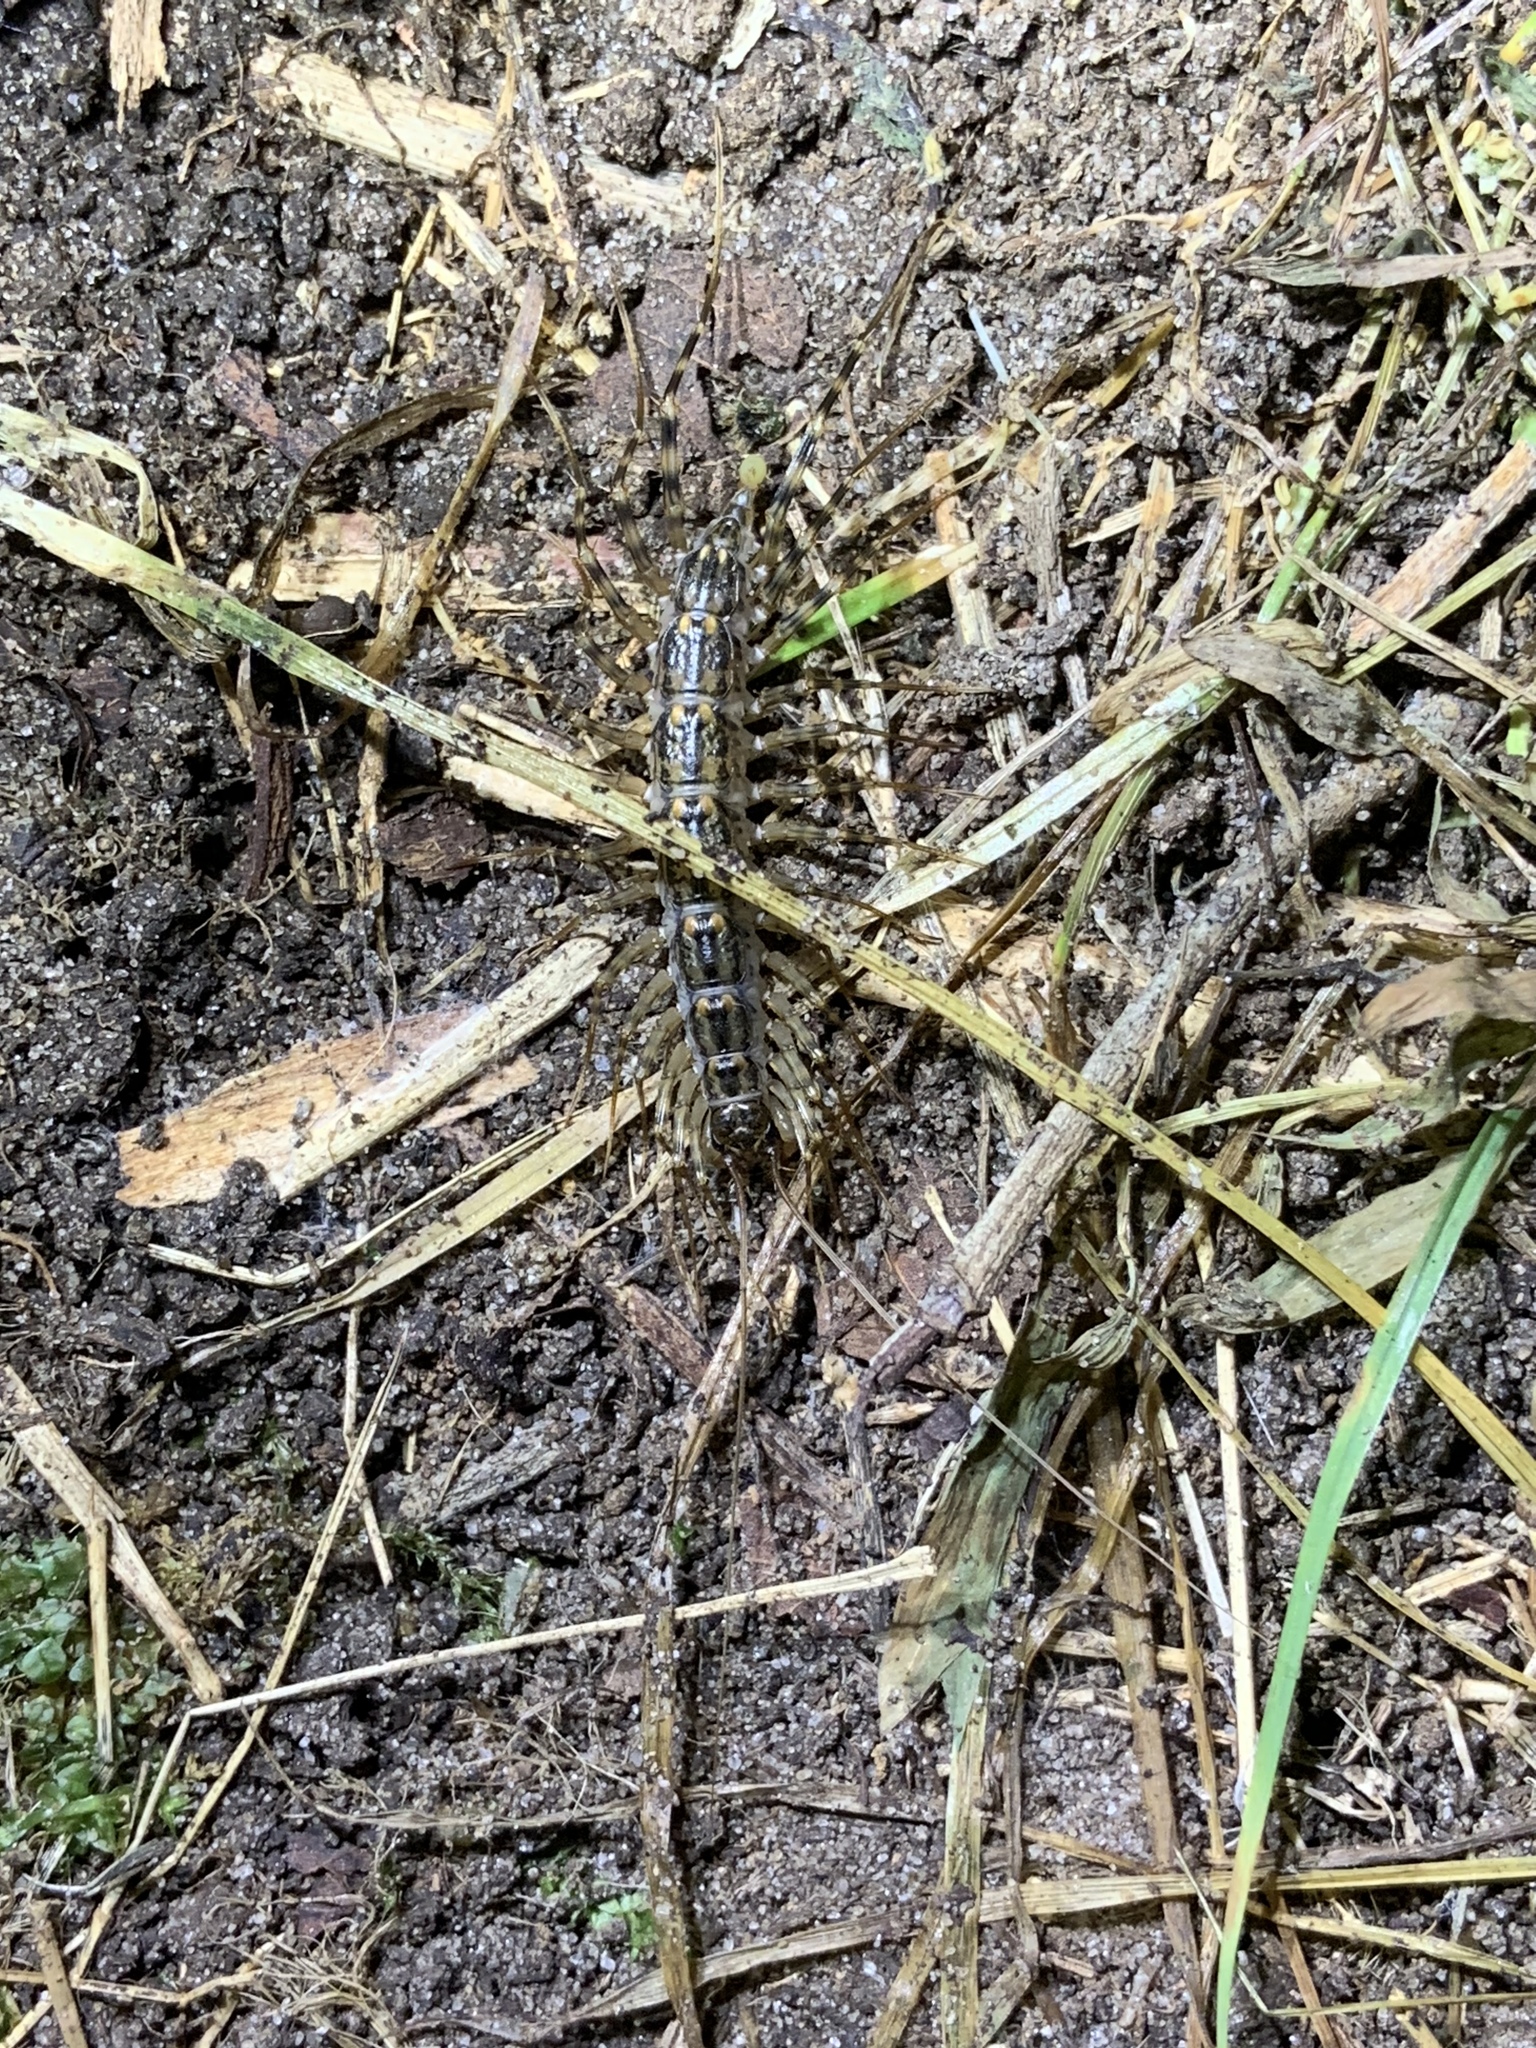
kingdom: Animalia
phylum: Arthropoda
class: Chilopoda
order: Scutigeromorpha
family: Scutigeridae
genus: Scutigera
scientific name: Scutigera coleoptrata
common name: House centipede
